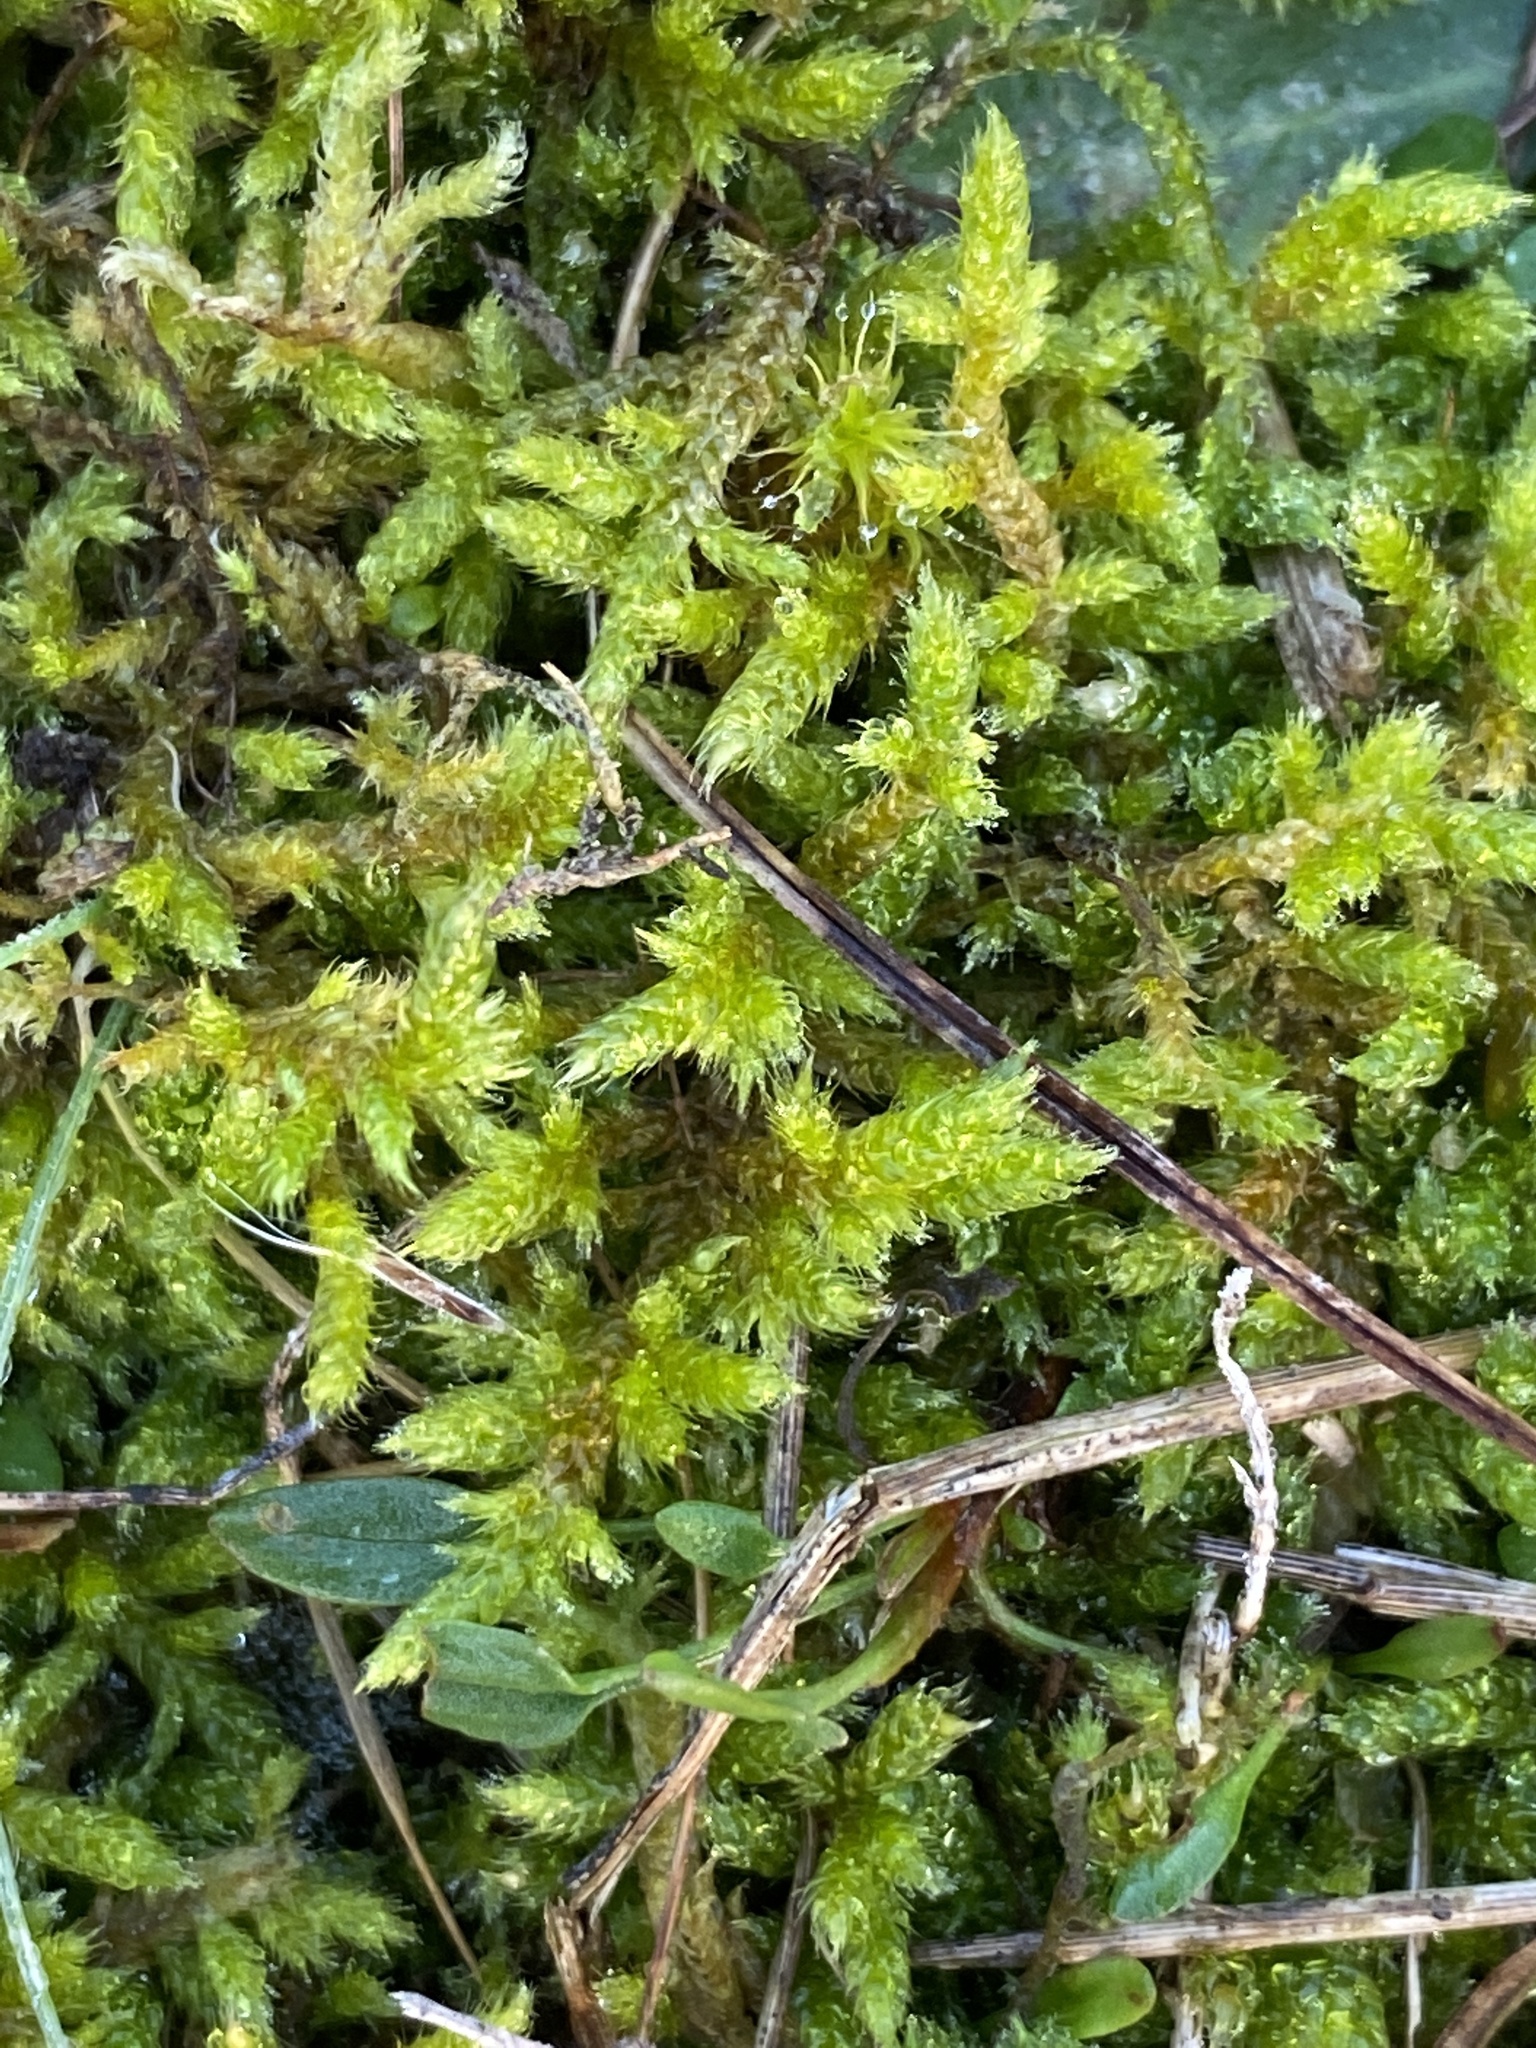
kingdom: Plantae
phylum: Bryophyta
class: Bryopsida
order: Hypnales
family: Hypnaceae
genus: Hypnum
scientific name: Hypnum cupressiforme
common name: Cypress-leaved plait-moss
